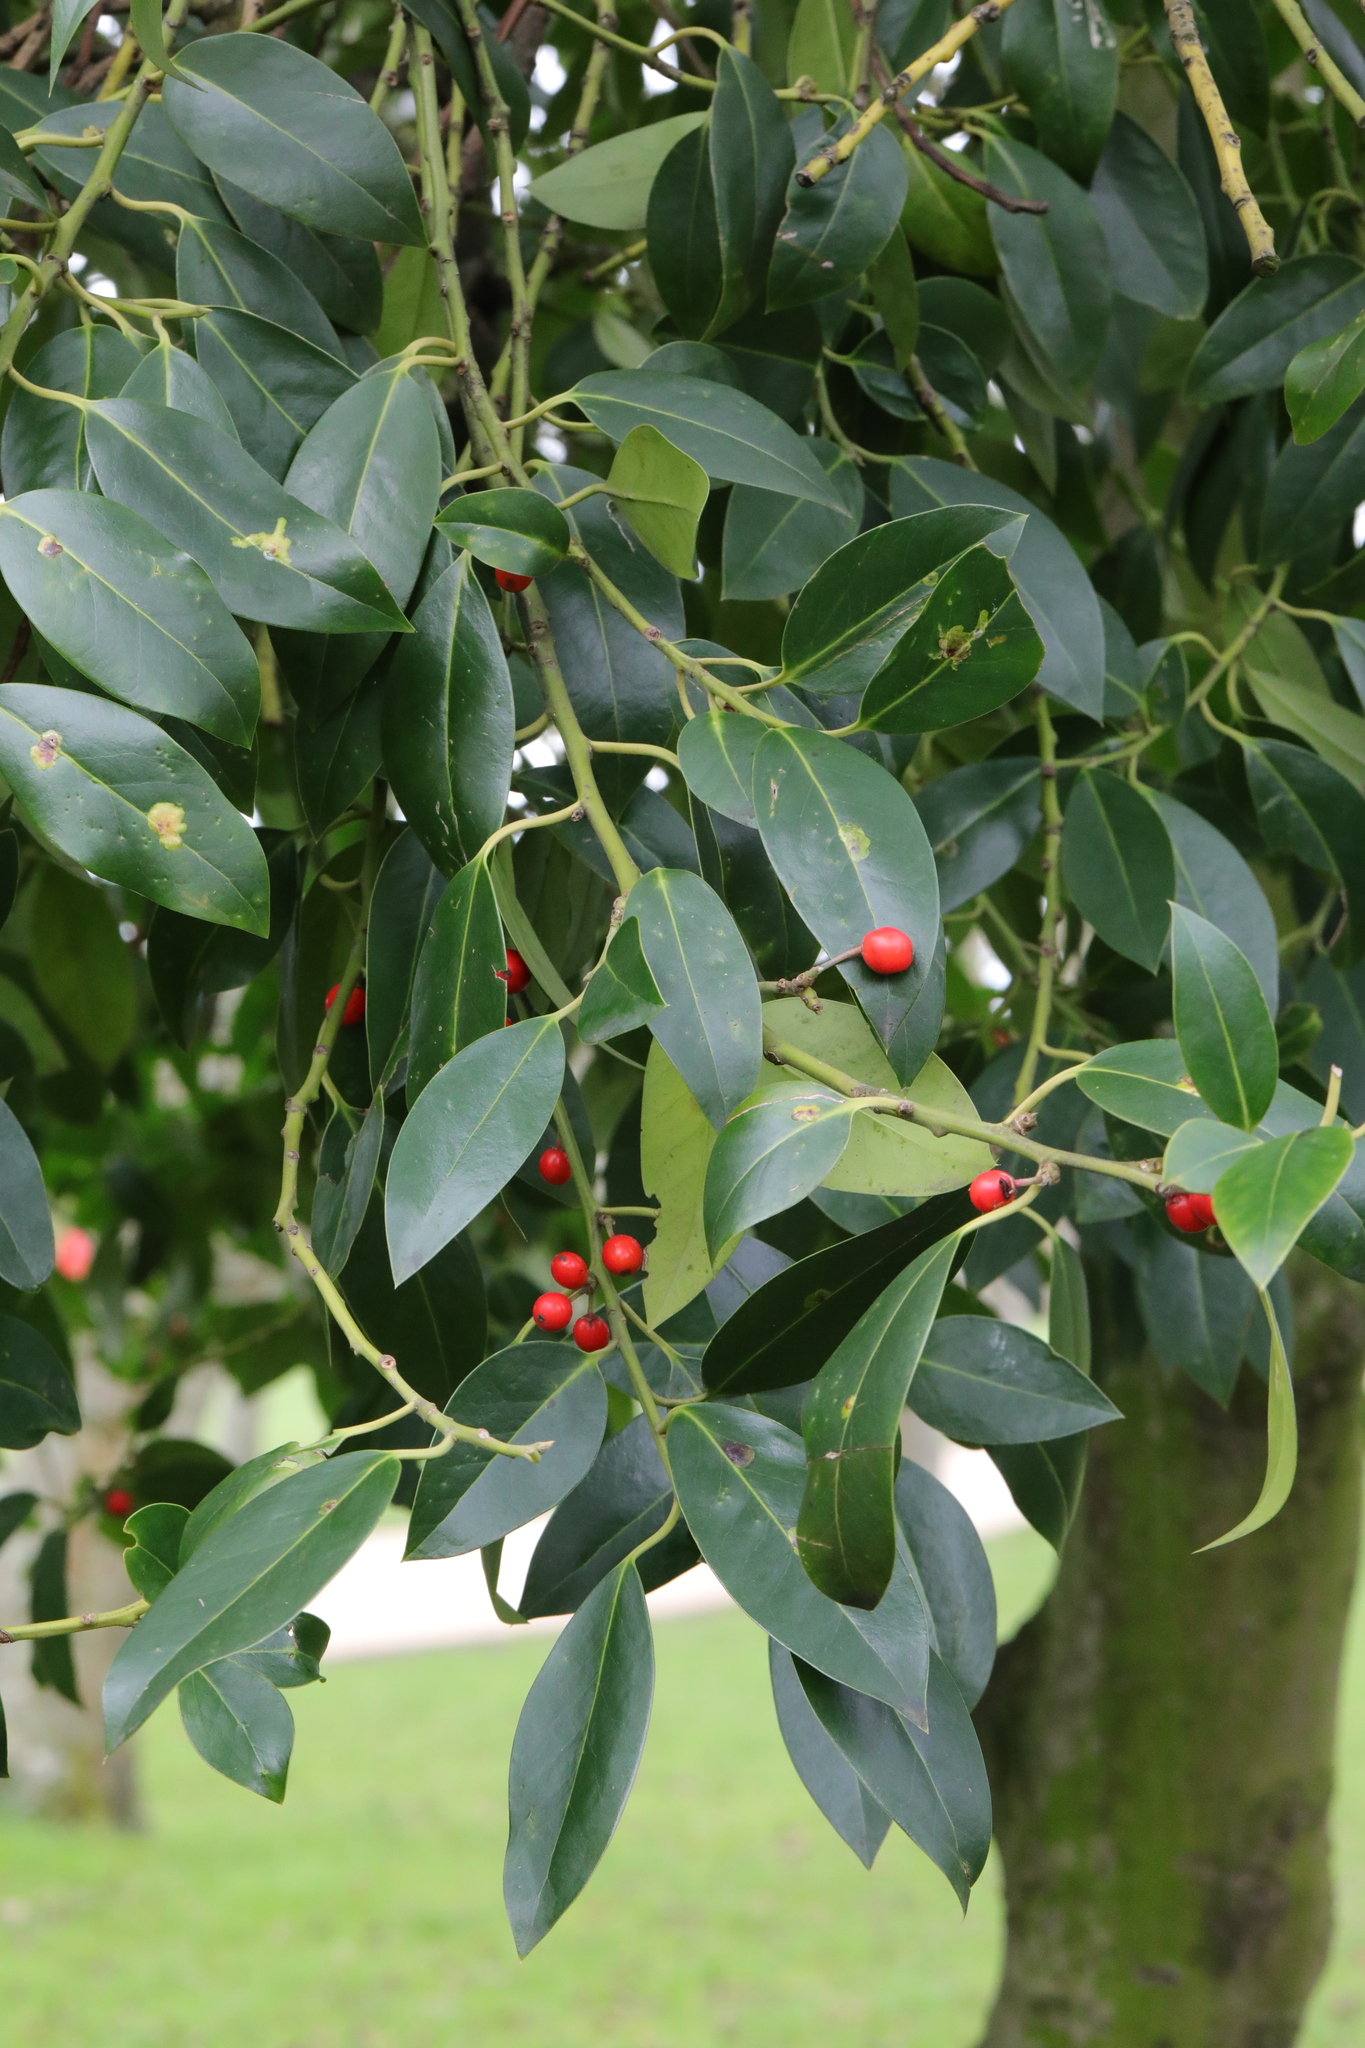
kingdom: Plantae
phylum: Tracheophyta
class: Magnoliopsida
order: Aquifoliales
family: Aquifoliaceae
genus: Ilex
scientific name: Ilex aquifolium
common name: English holly
